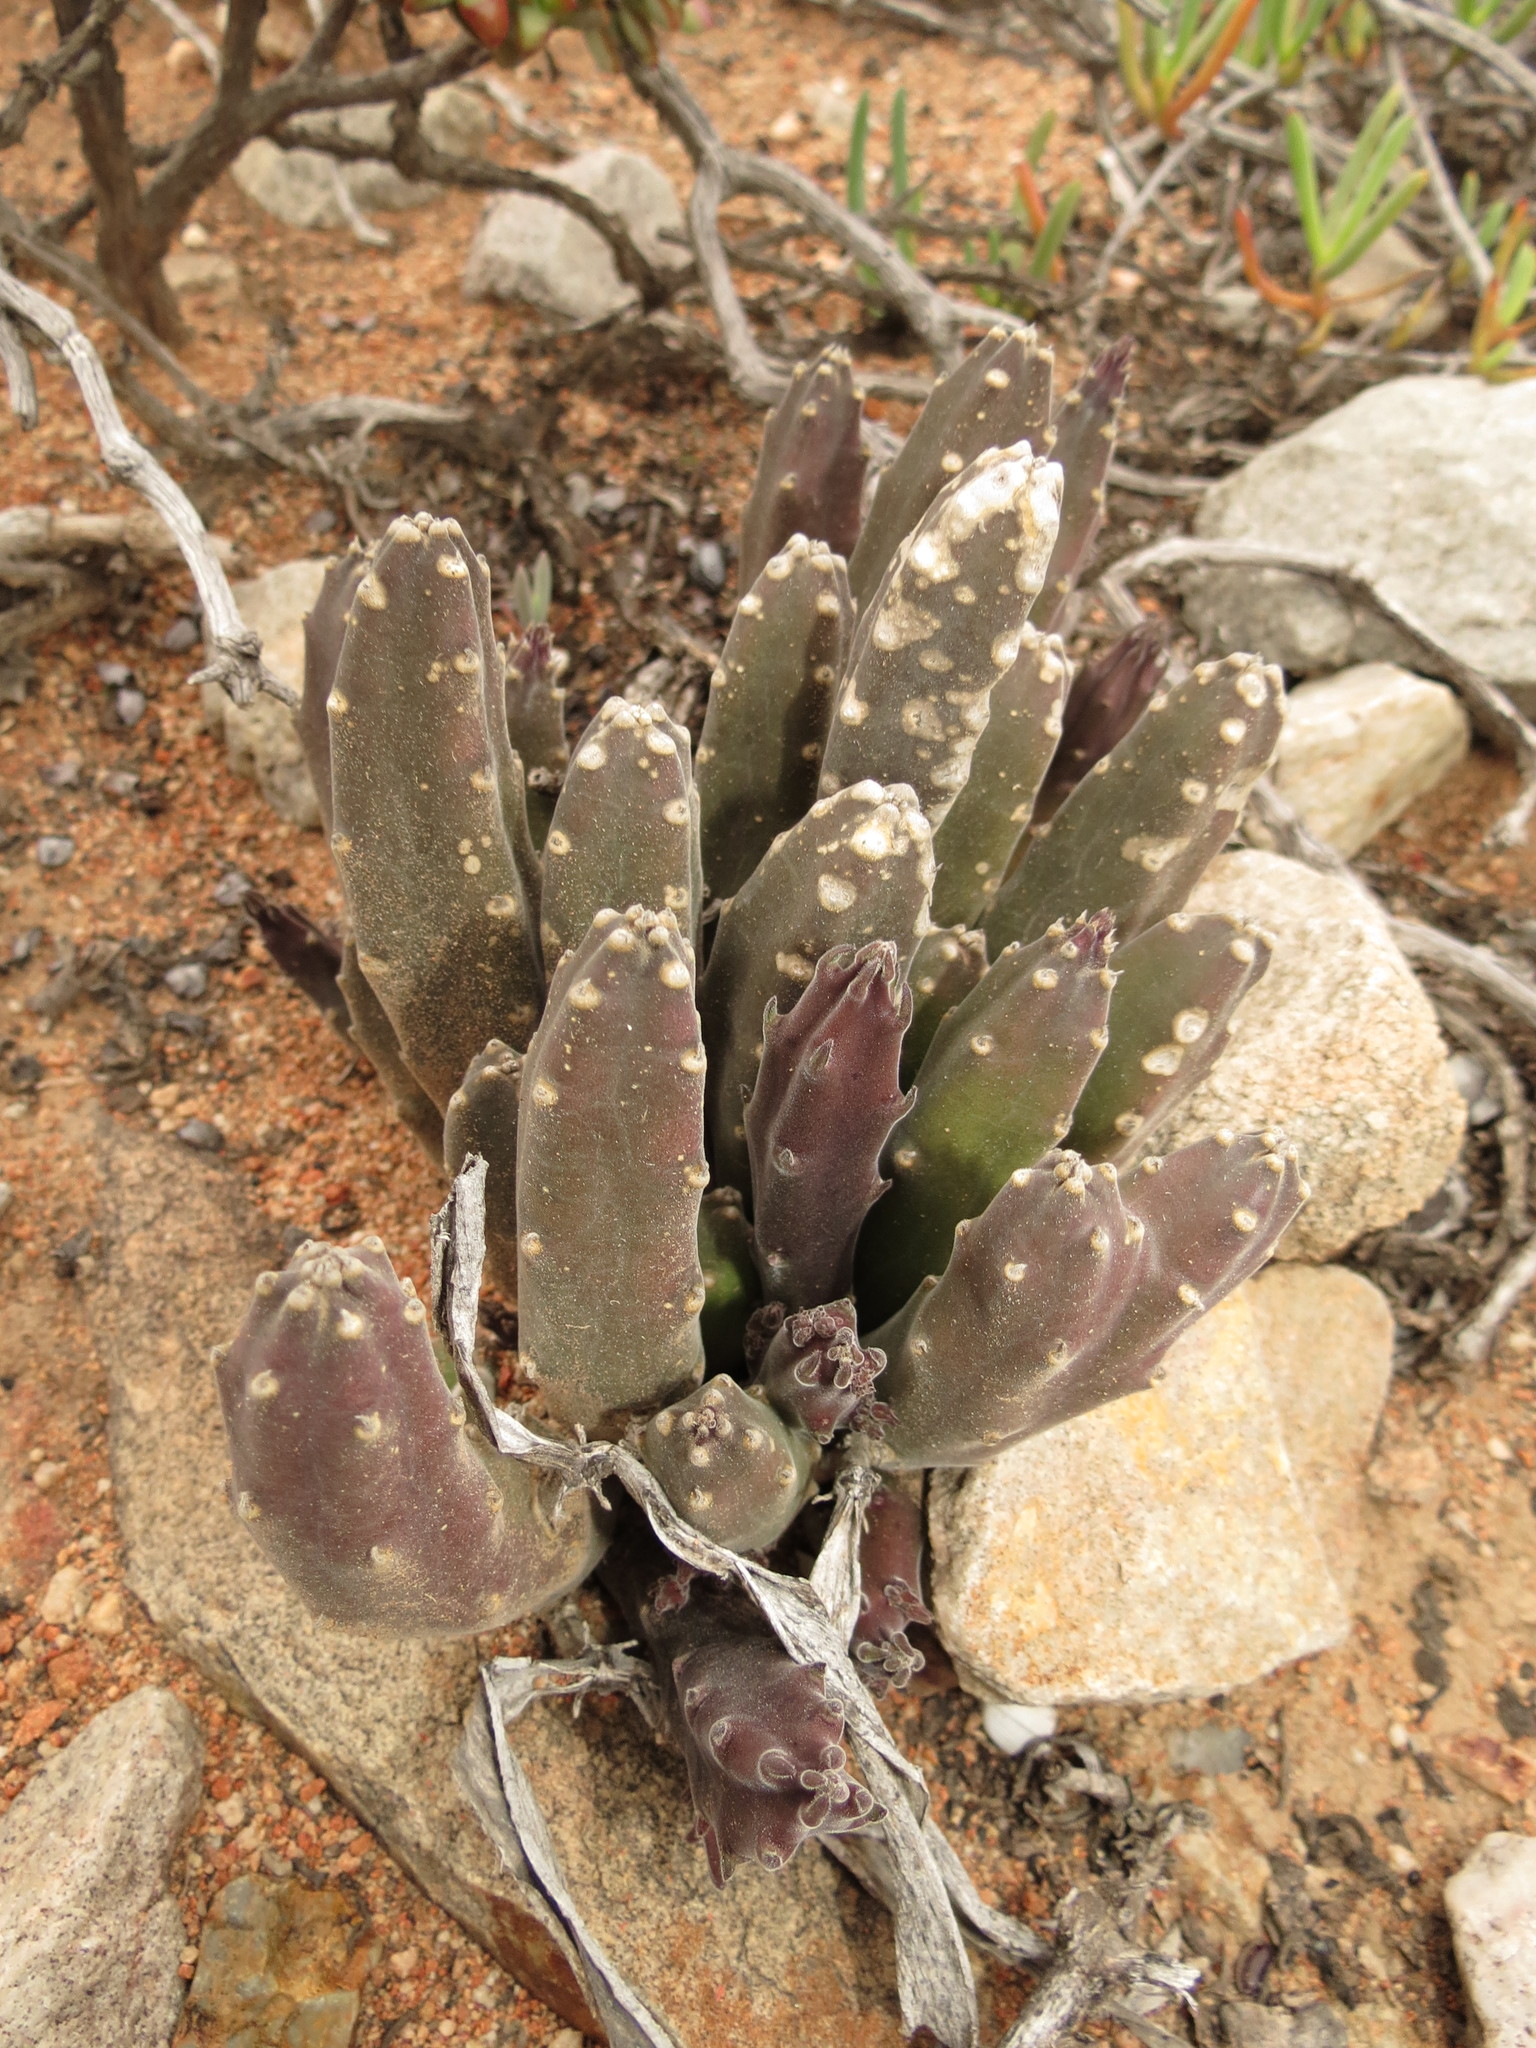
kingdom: Plantae
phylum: Tracheophyta
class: Magnoliopsida
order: Gentianales
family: Apocynaceae
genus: Ceropegia
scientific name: Ceropegia rufa
